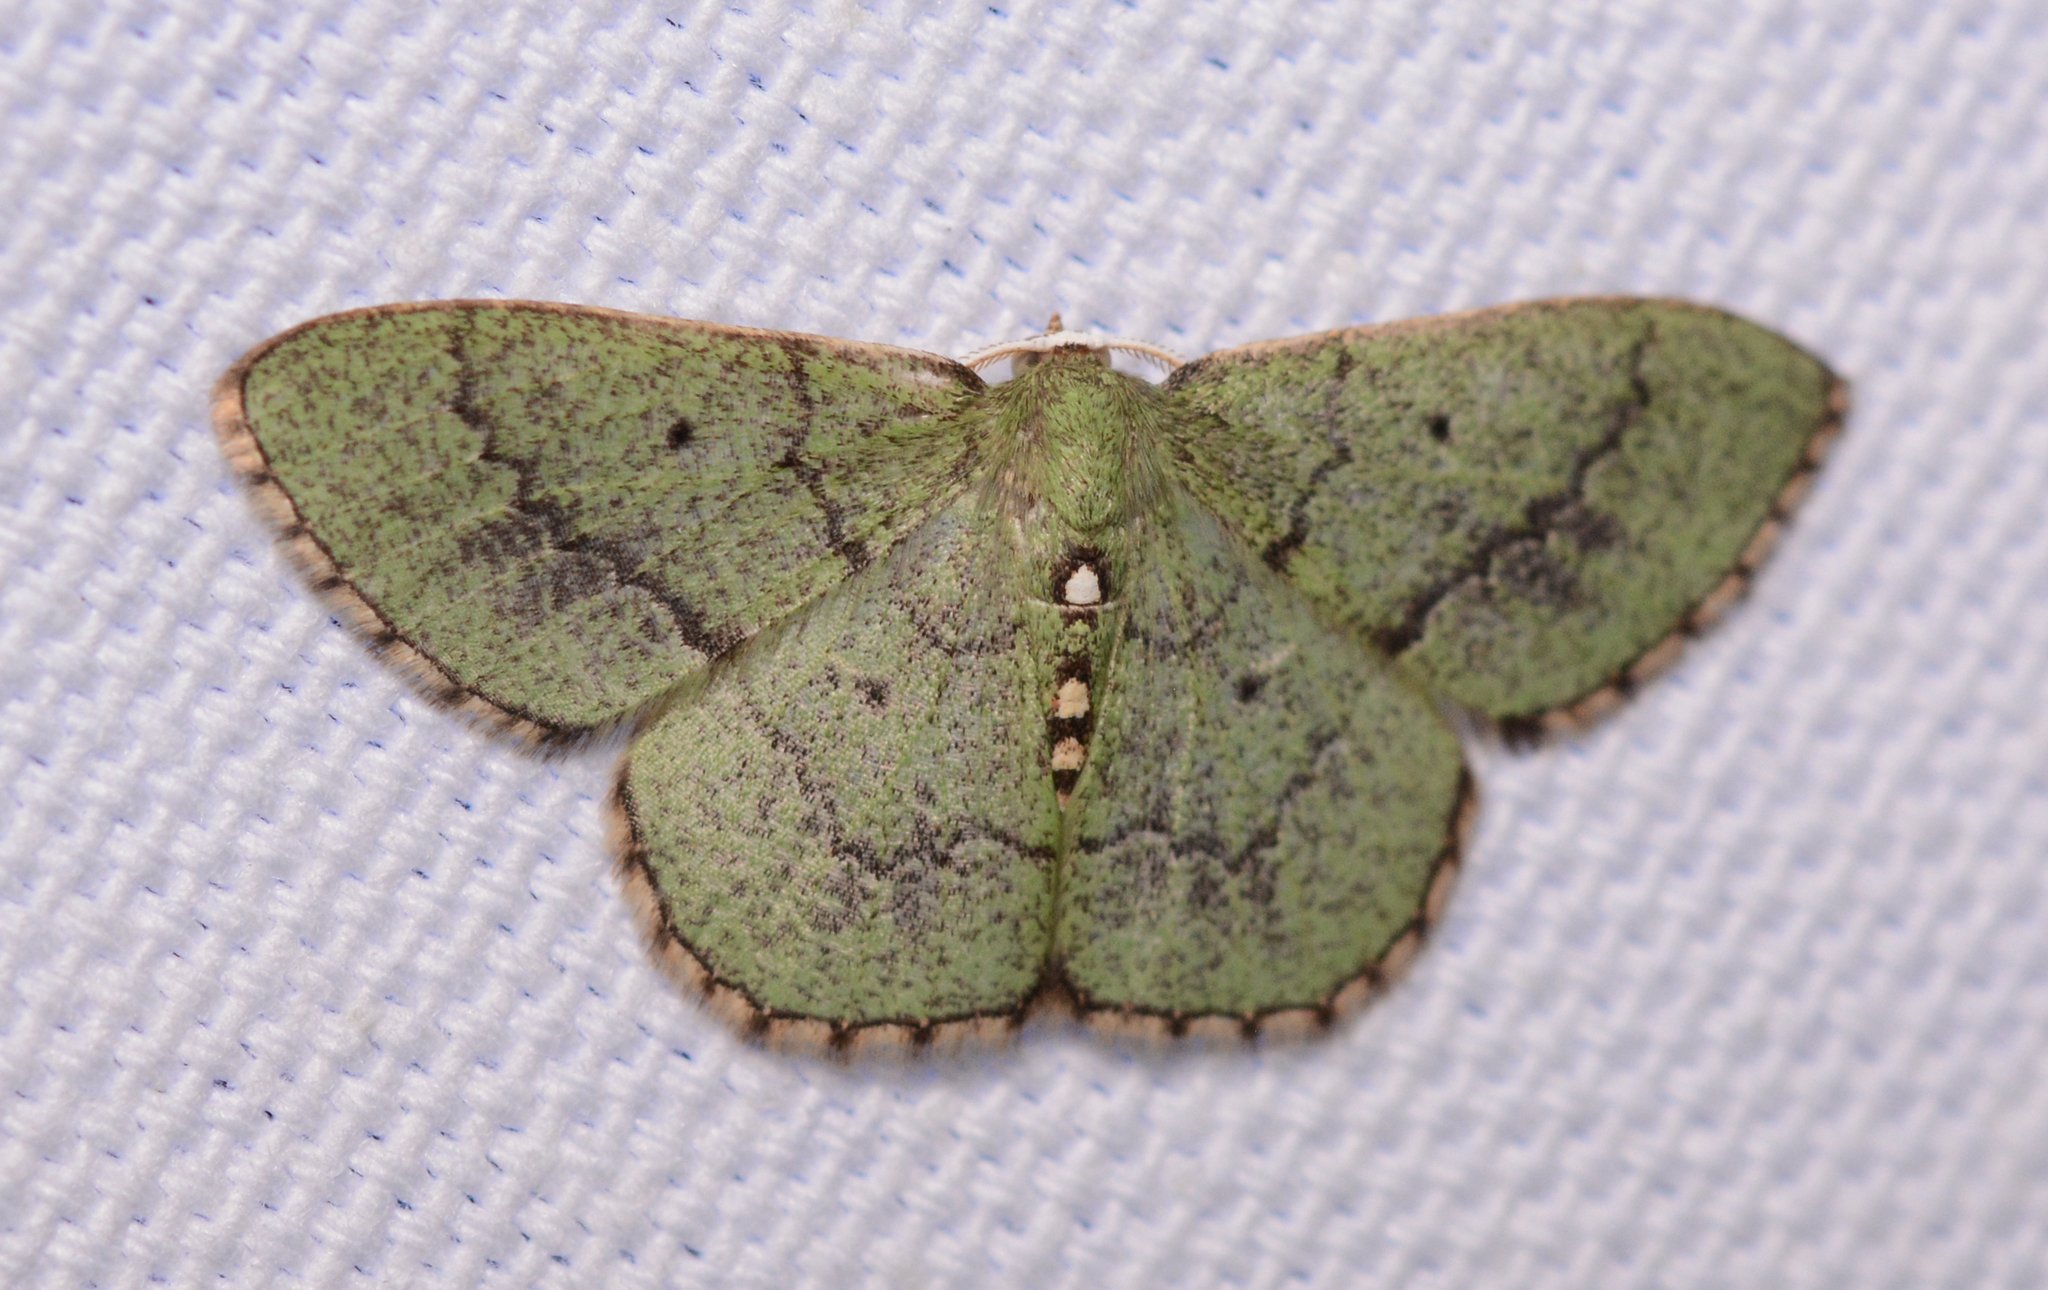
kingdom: Animalia
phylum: Arthropoda
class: Insecta
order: Lepidoptera
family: Geometridae
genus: Nemoria
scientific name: Nemoria lixaria
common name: Red-bordered emerald
